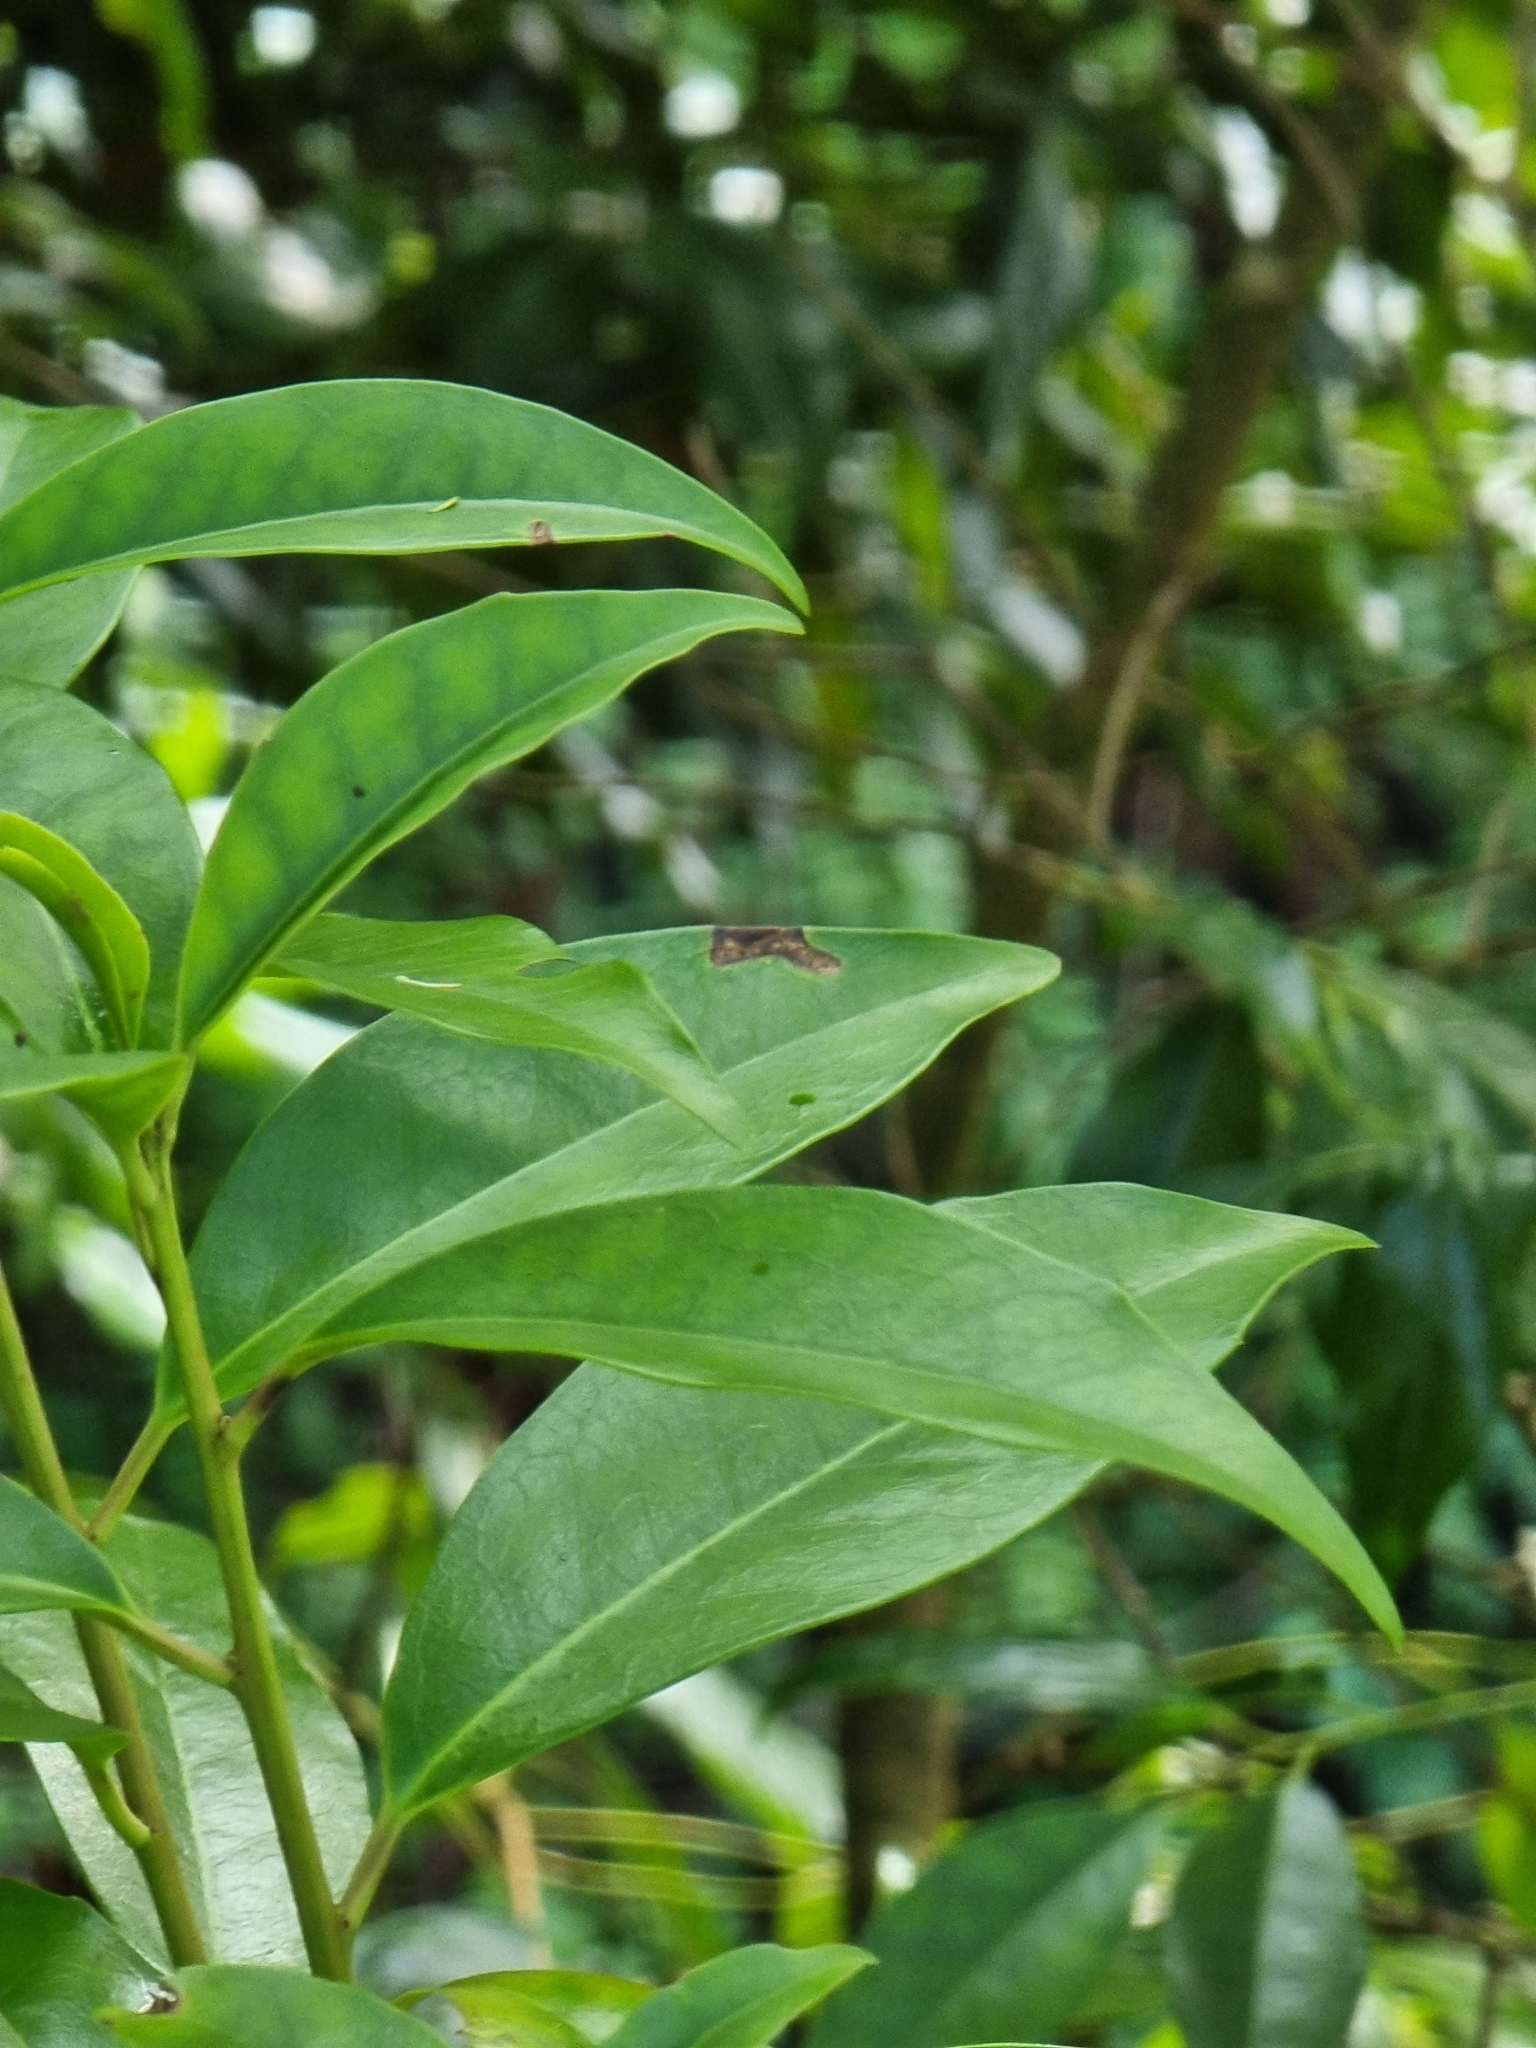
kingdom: Plantae
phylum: Tracheophyta
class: Magnoliopsida
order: Aquifoliales
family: Aquifoliaceae
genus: Ilex
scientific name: Ilex canariensis
